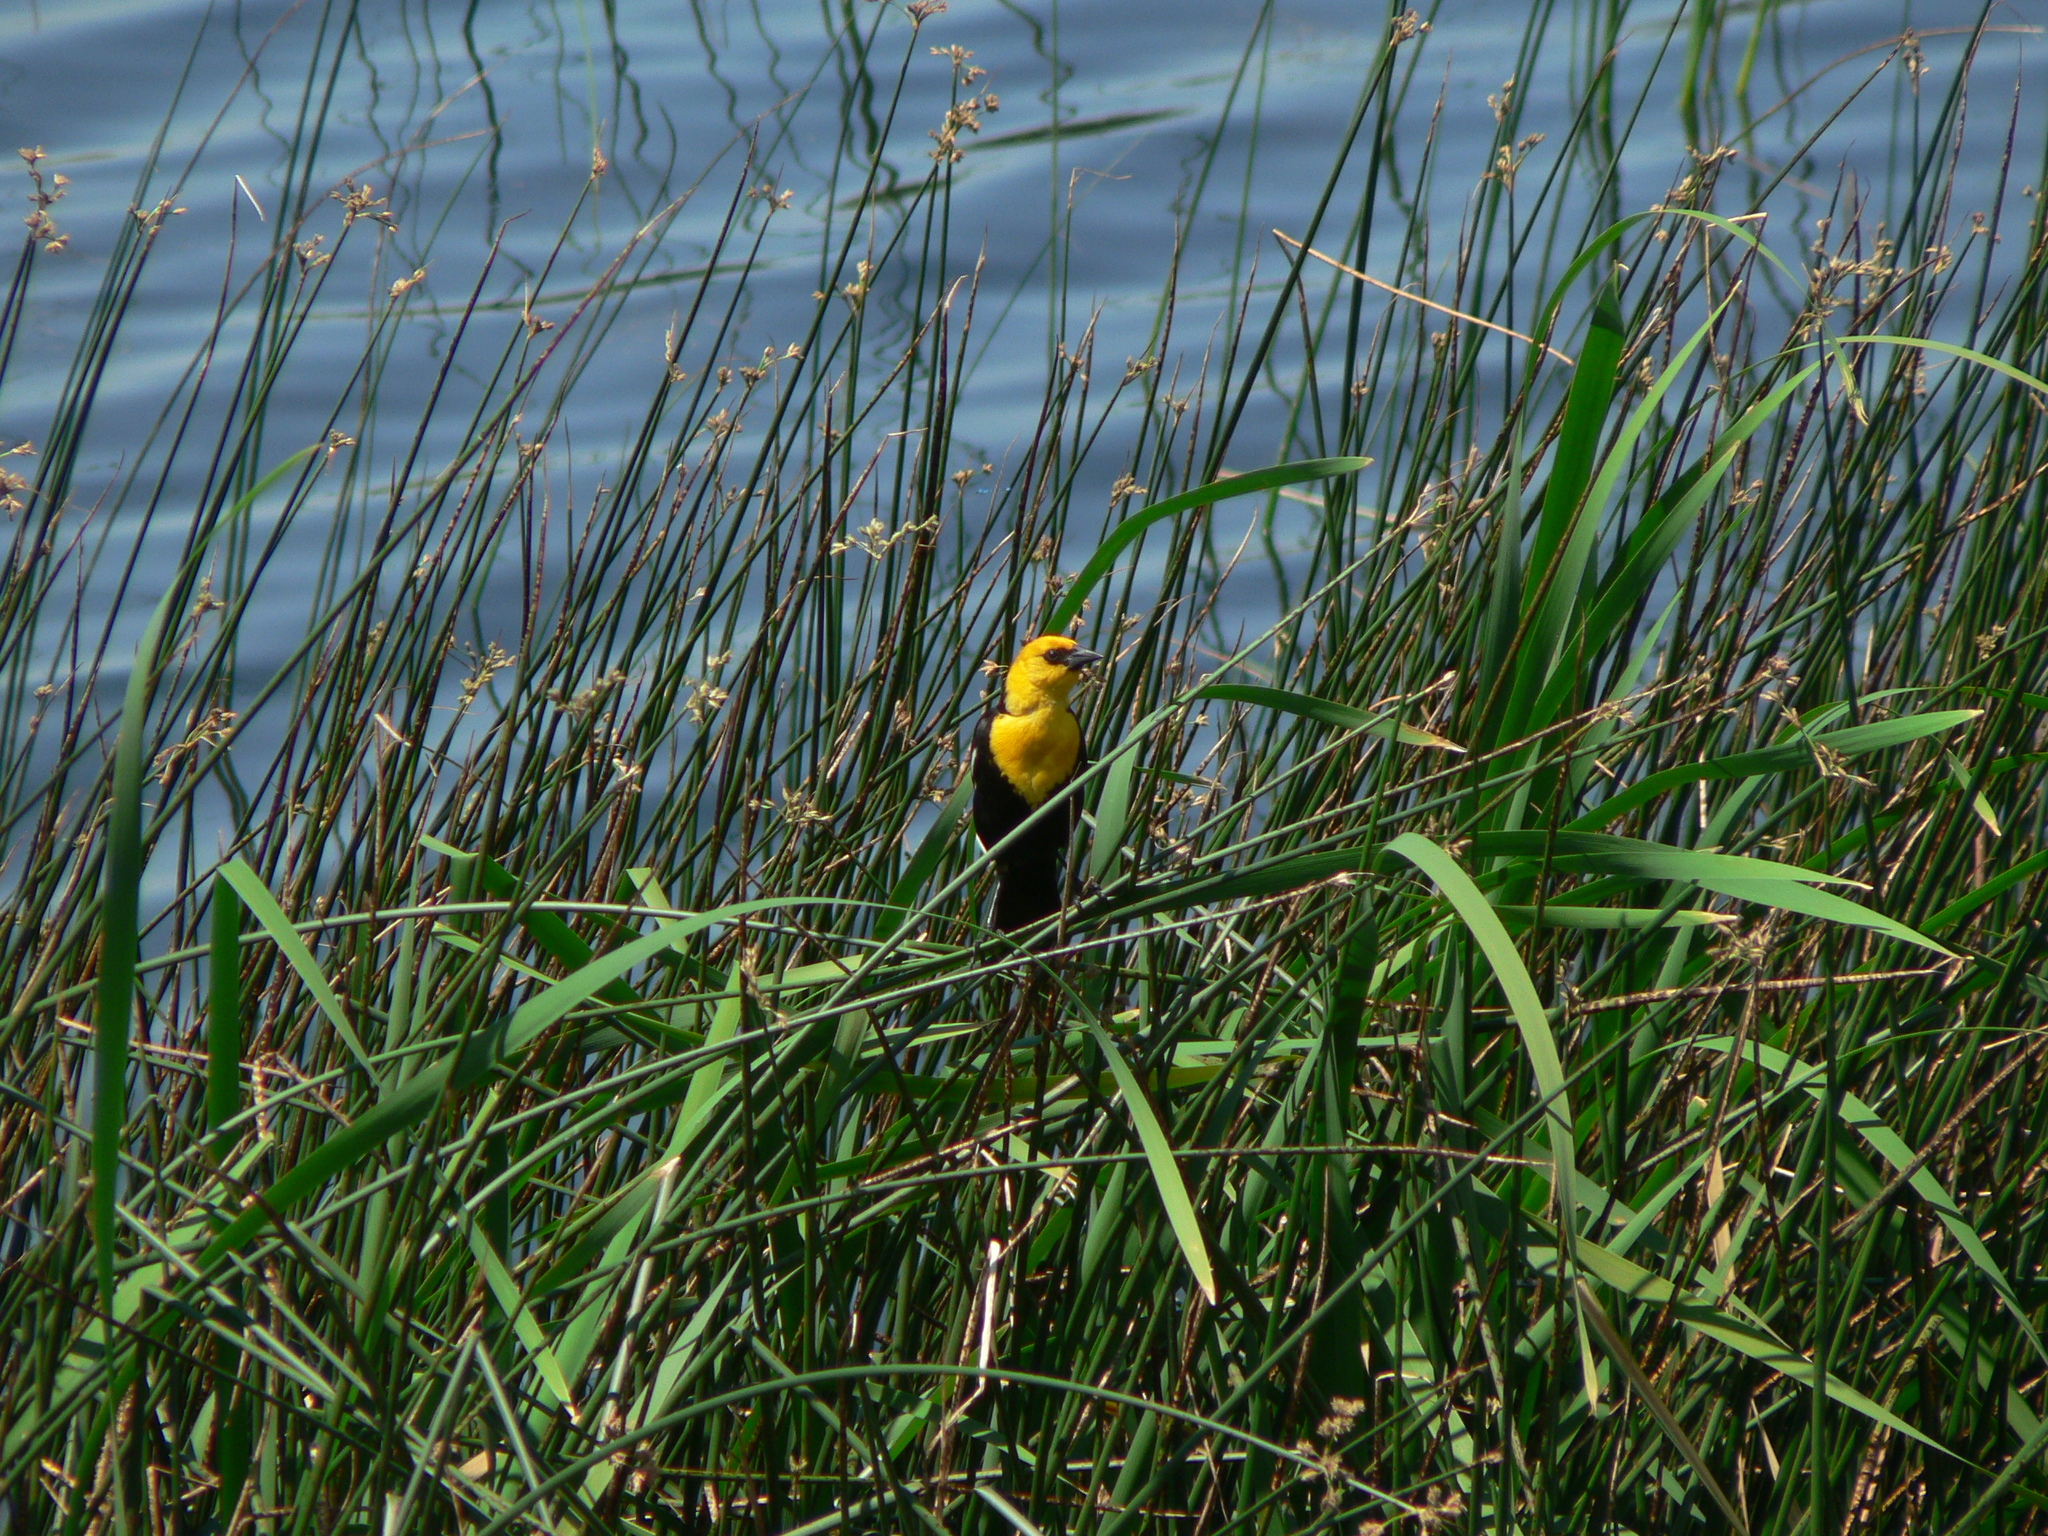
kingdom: Animalia
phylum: Chordata
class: Aves
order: Passeriformes
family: Icteridae
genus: Xanthocephalus
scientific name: Xanthocephalus xanthocephalus
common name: Yellow-headed blackbird
